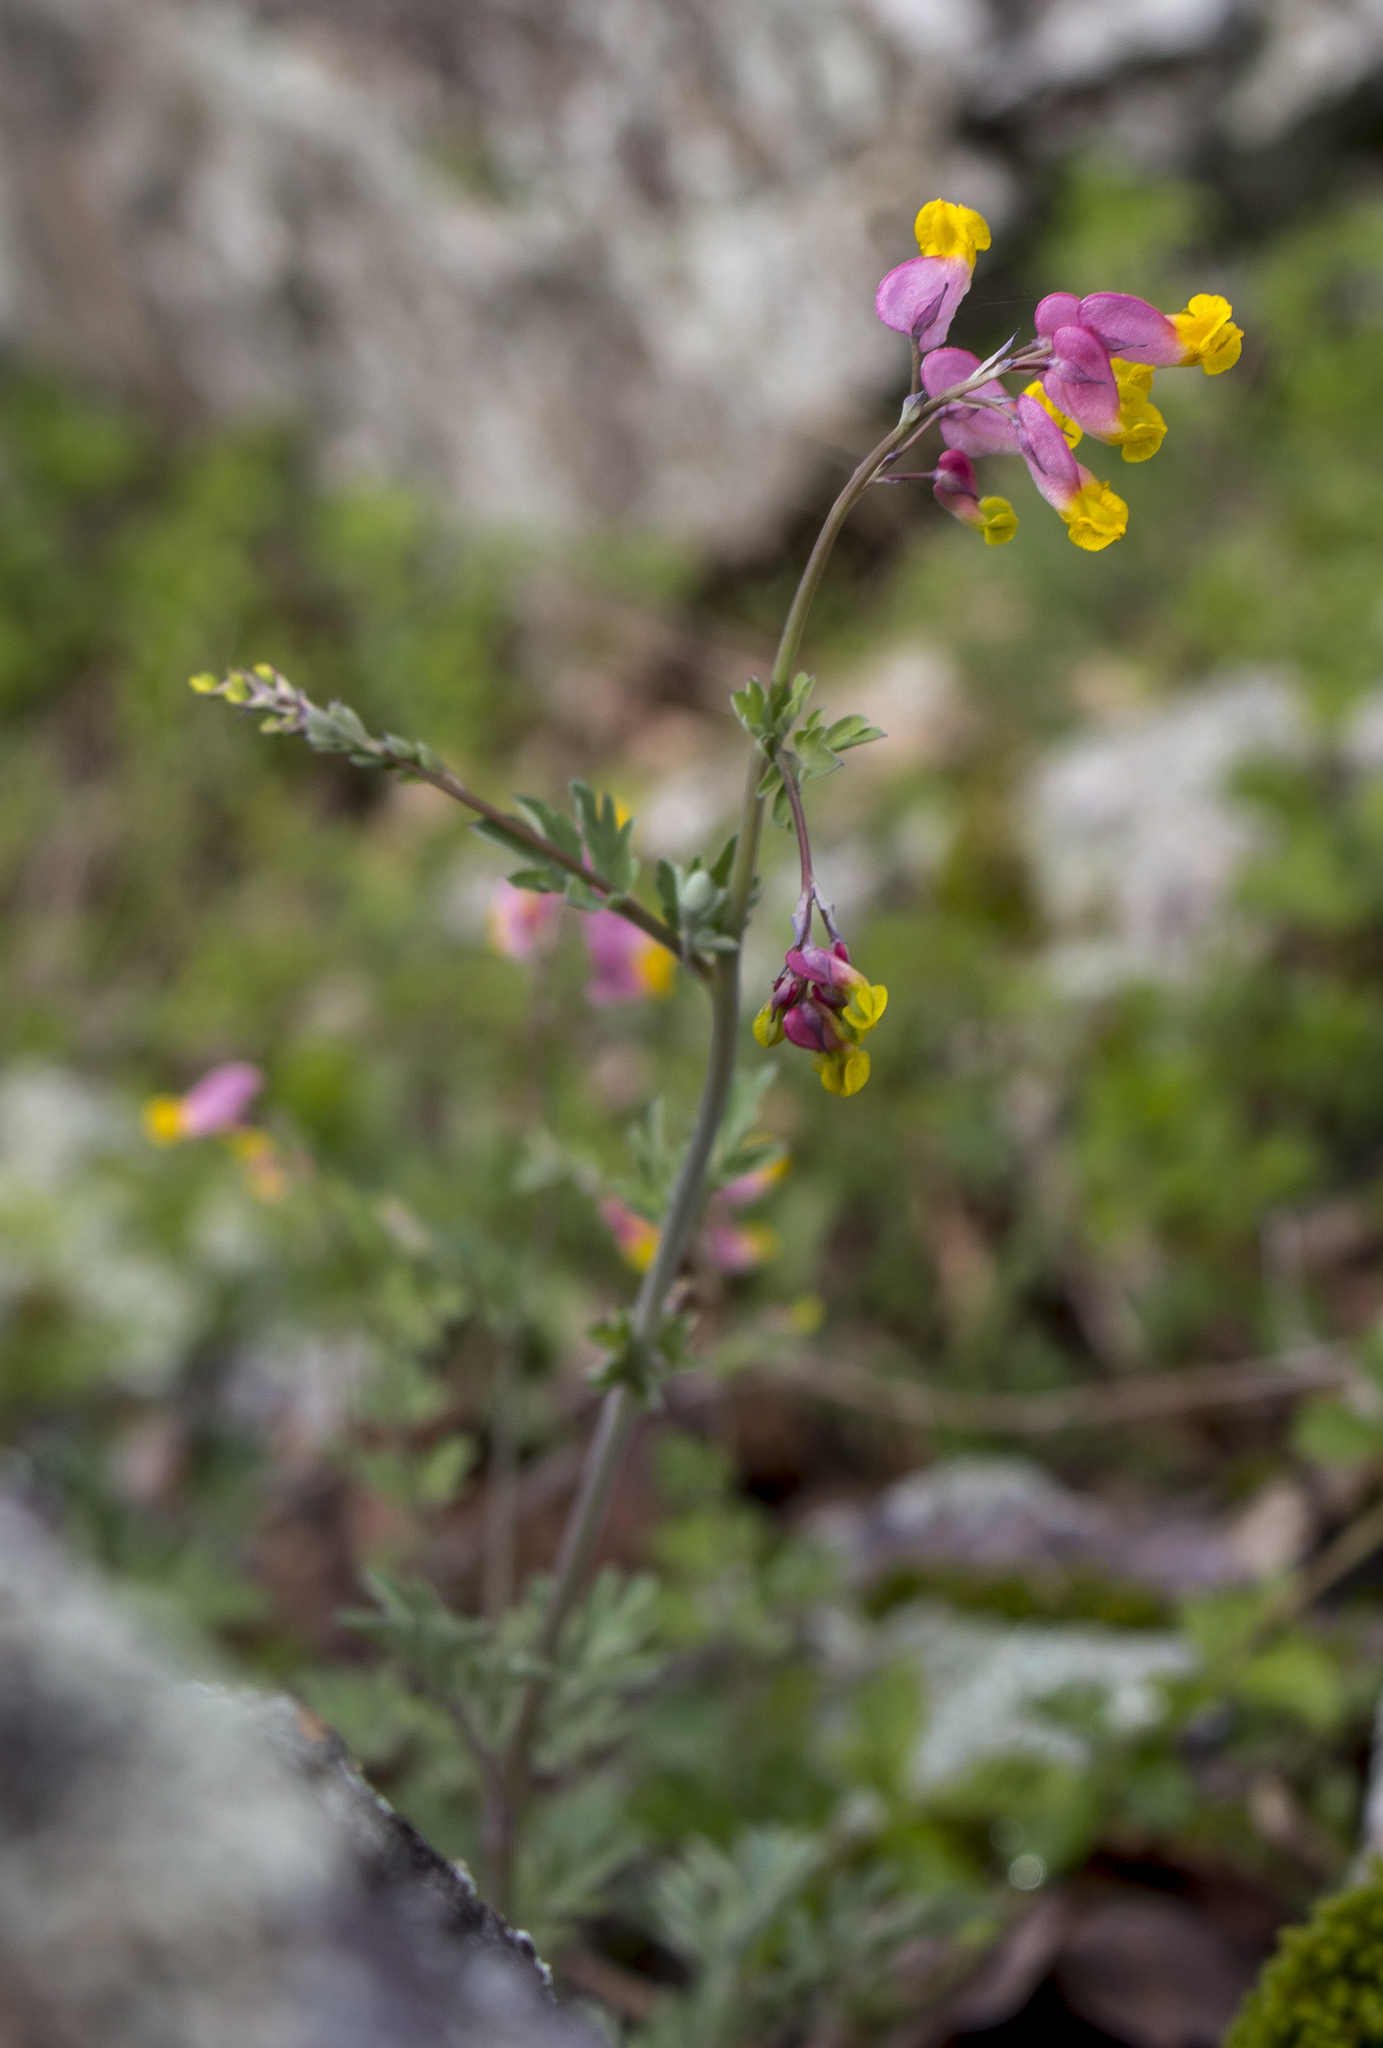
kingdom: Plantae
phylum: Tracheophyta
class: Magnoliopsida
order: Ranunculales
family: Papaveraceae
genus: Capnoides
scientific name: Capnoides sempervirens
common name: Rock harlequin
